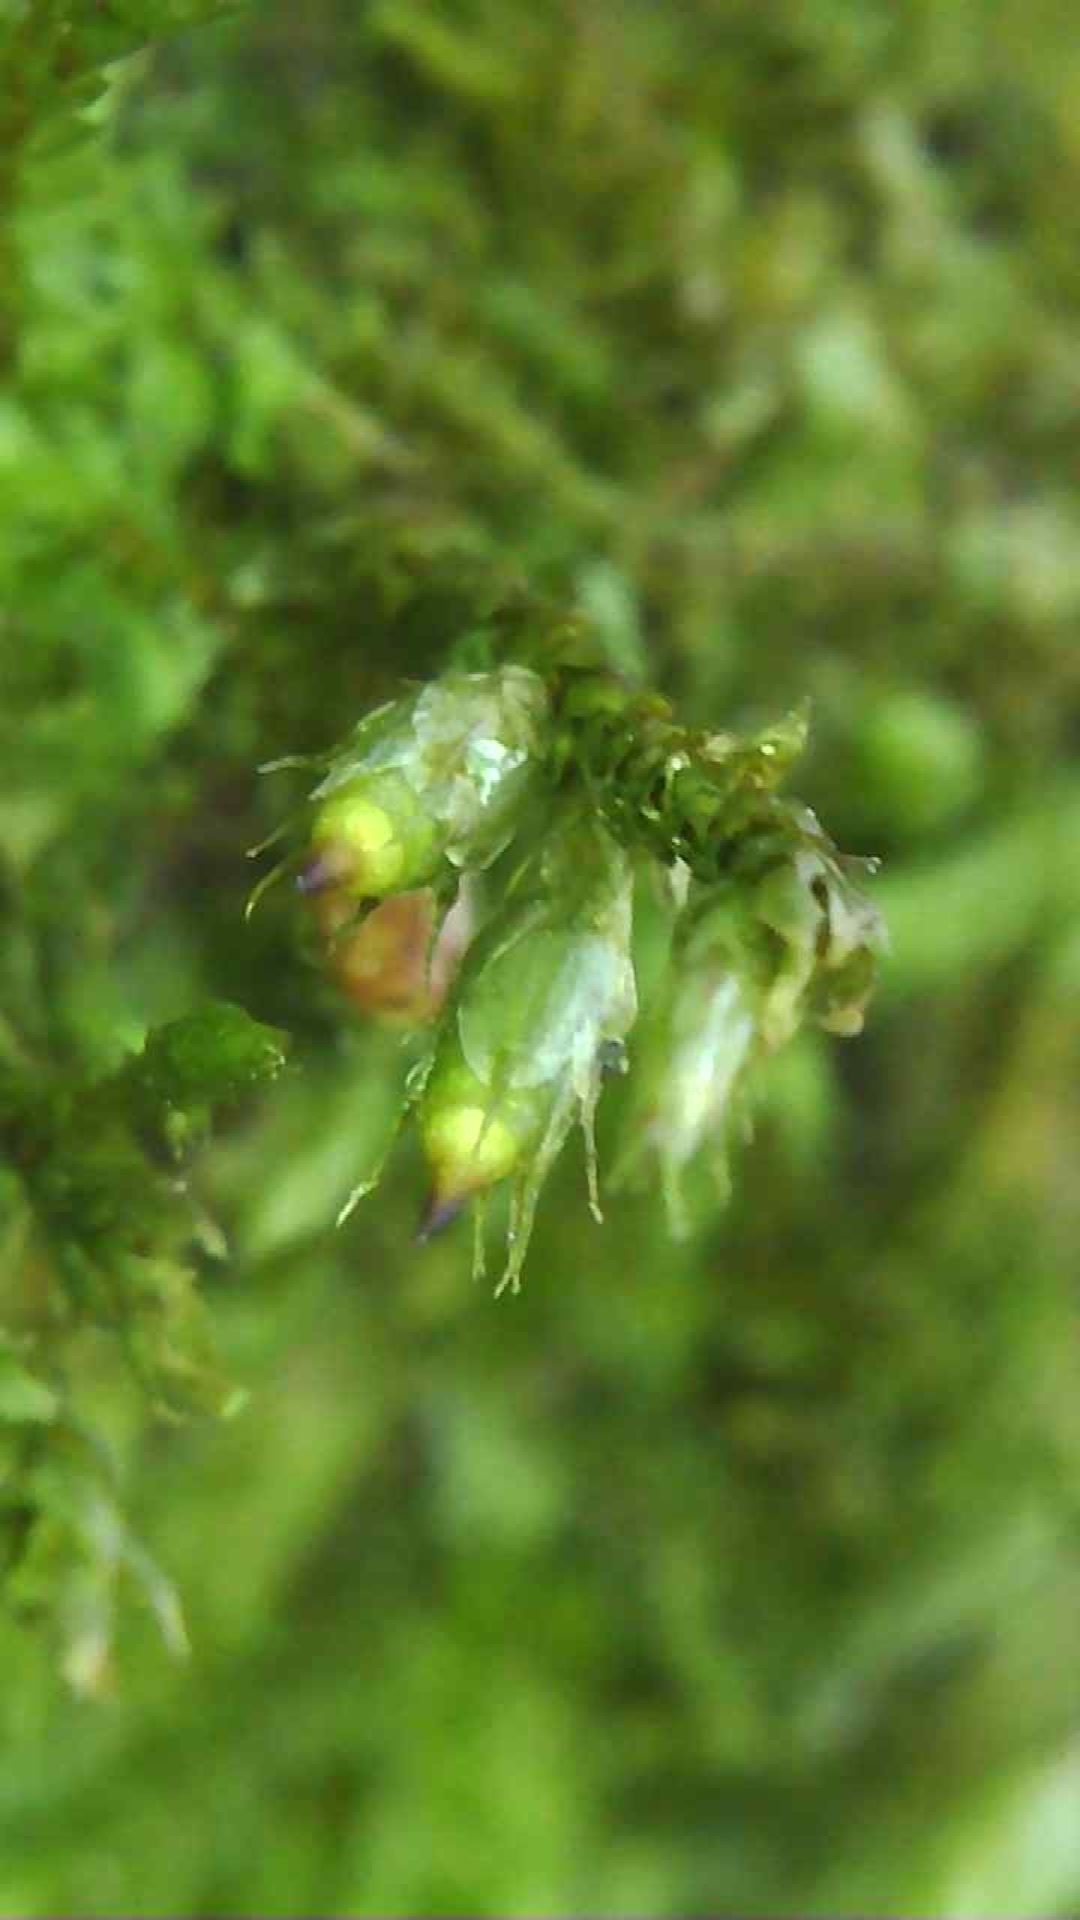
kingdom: Plantae
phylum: Bryophyta
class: Bryopsida
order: Hypnales
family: Cryphaeaceae
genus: Cryphaea
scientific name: Cryphaea heteromalla
